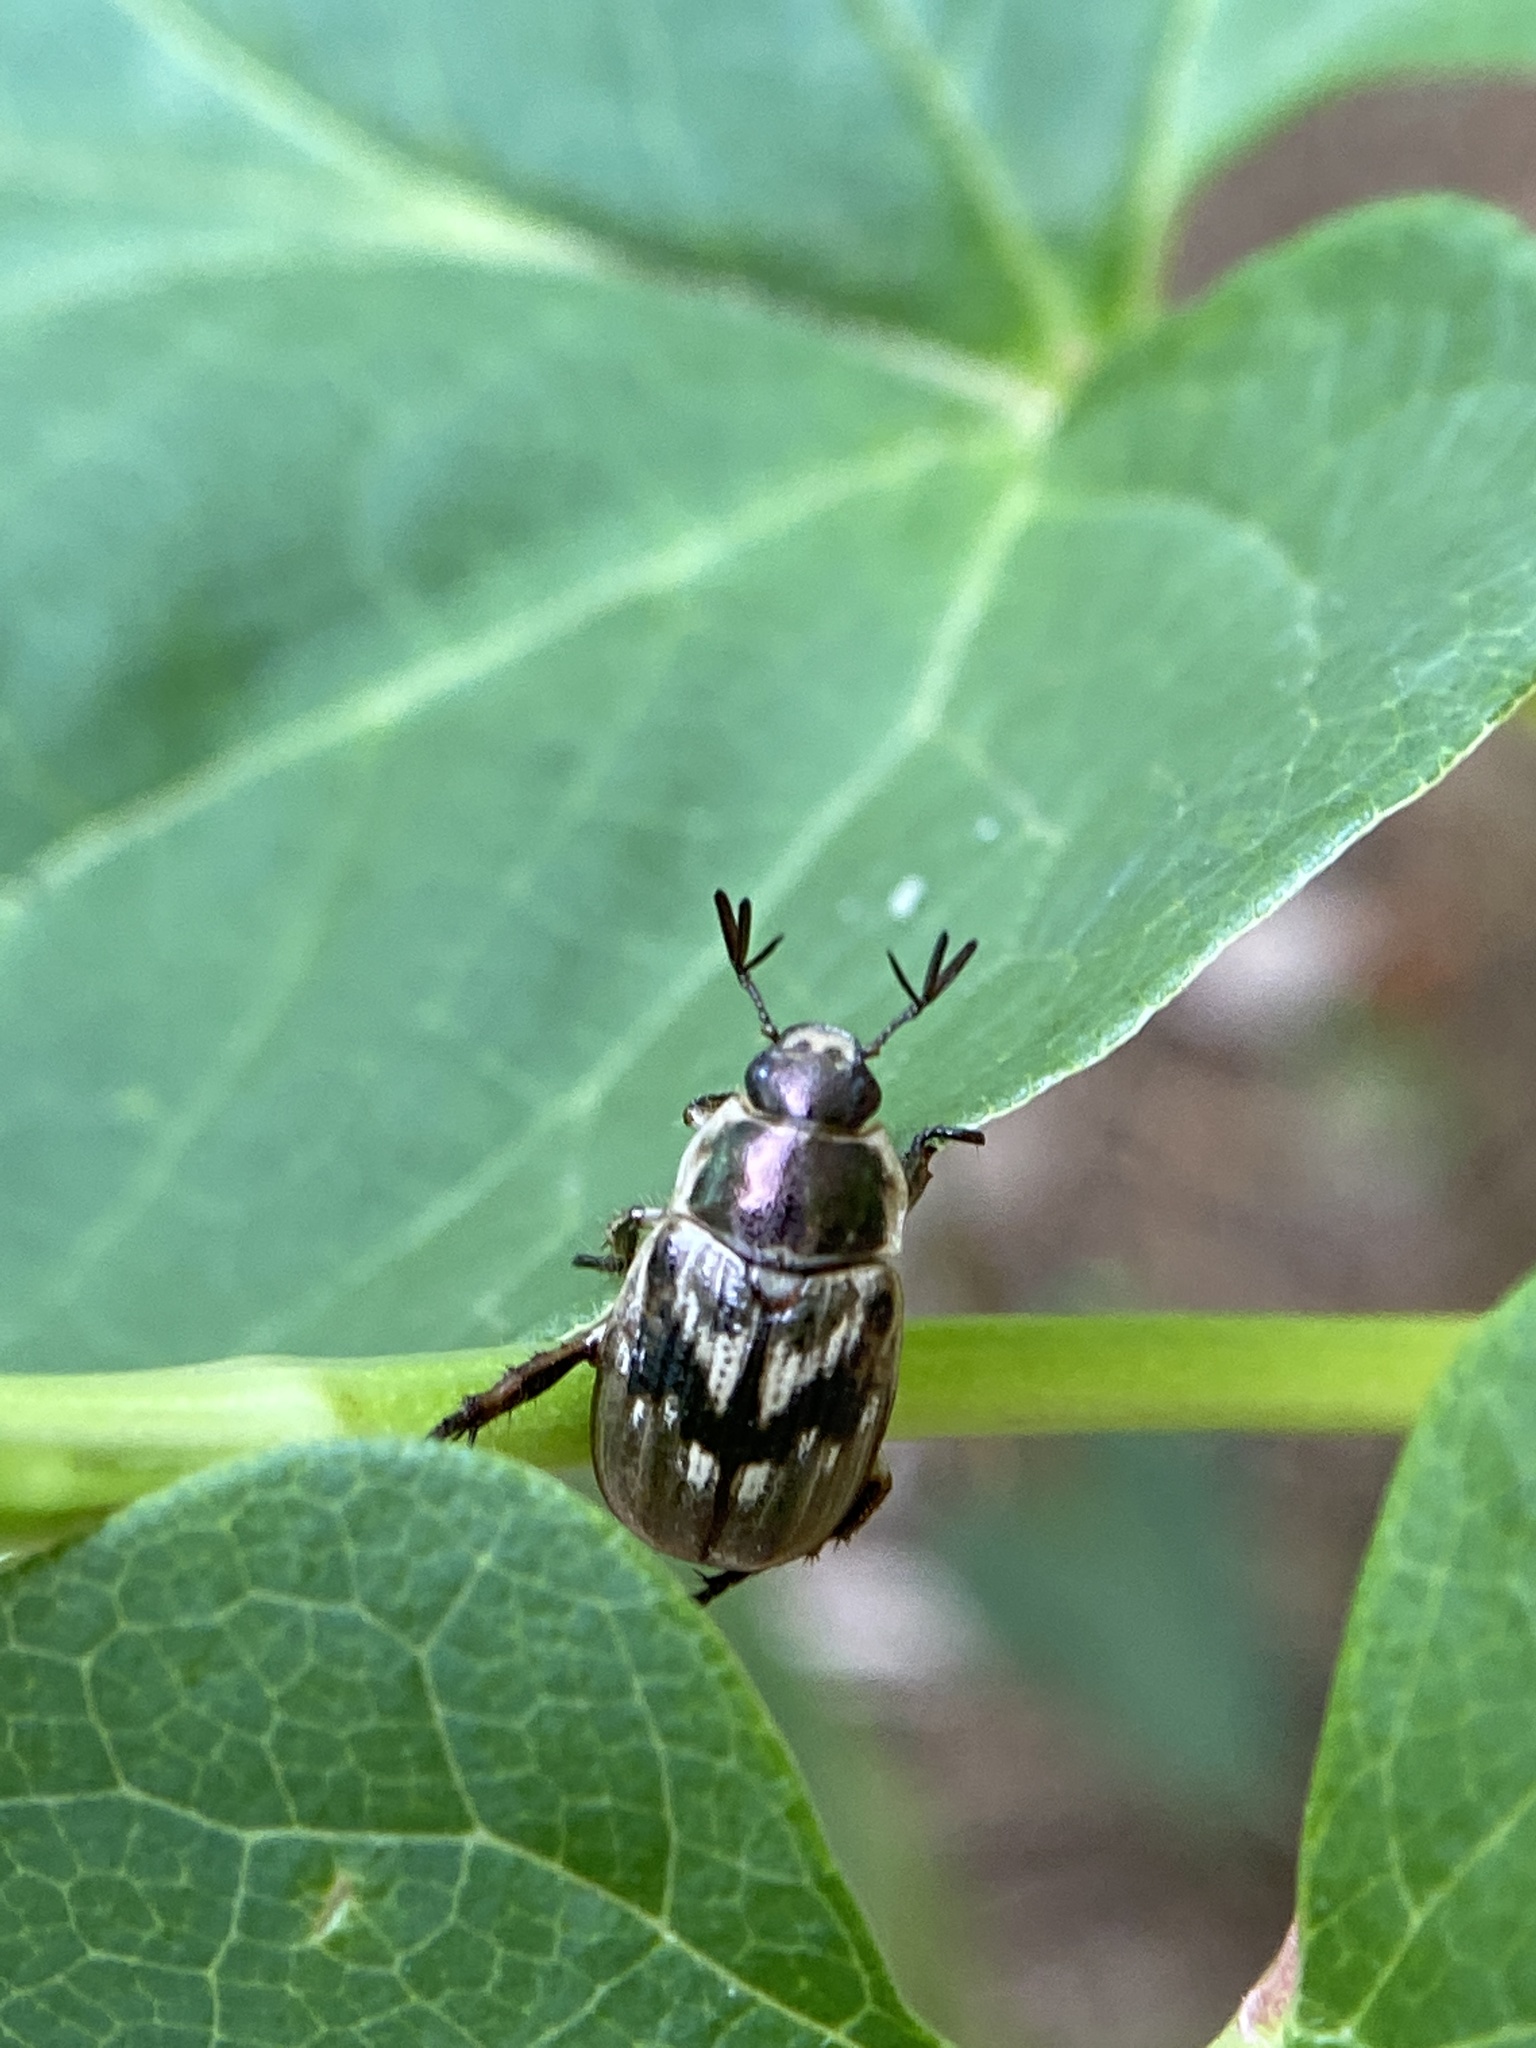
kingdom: Animalia
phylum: Arthropoda
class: Insecta
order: Coleoptera
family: Scarabaeidae
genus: Exomala
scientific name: Exomala orientalis
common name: Oriental beetle
